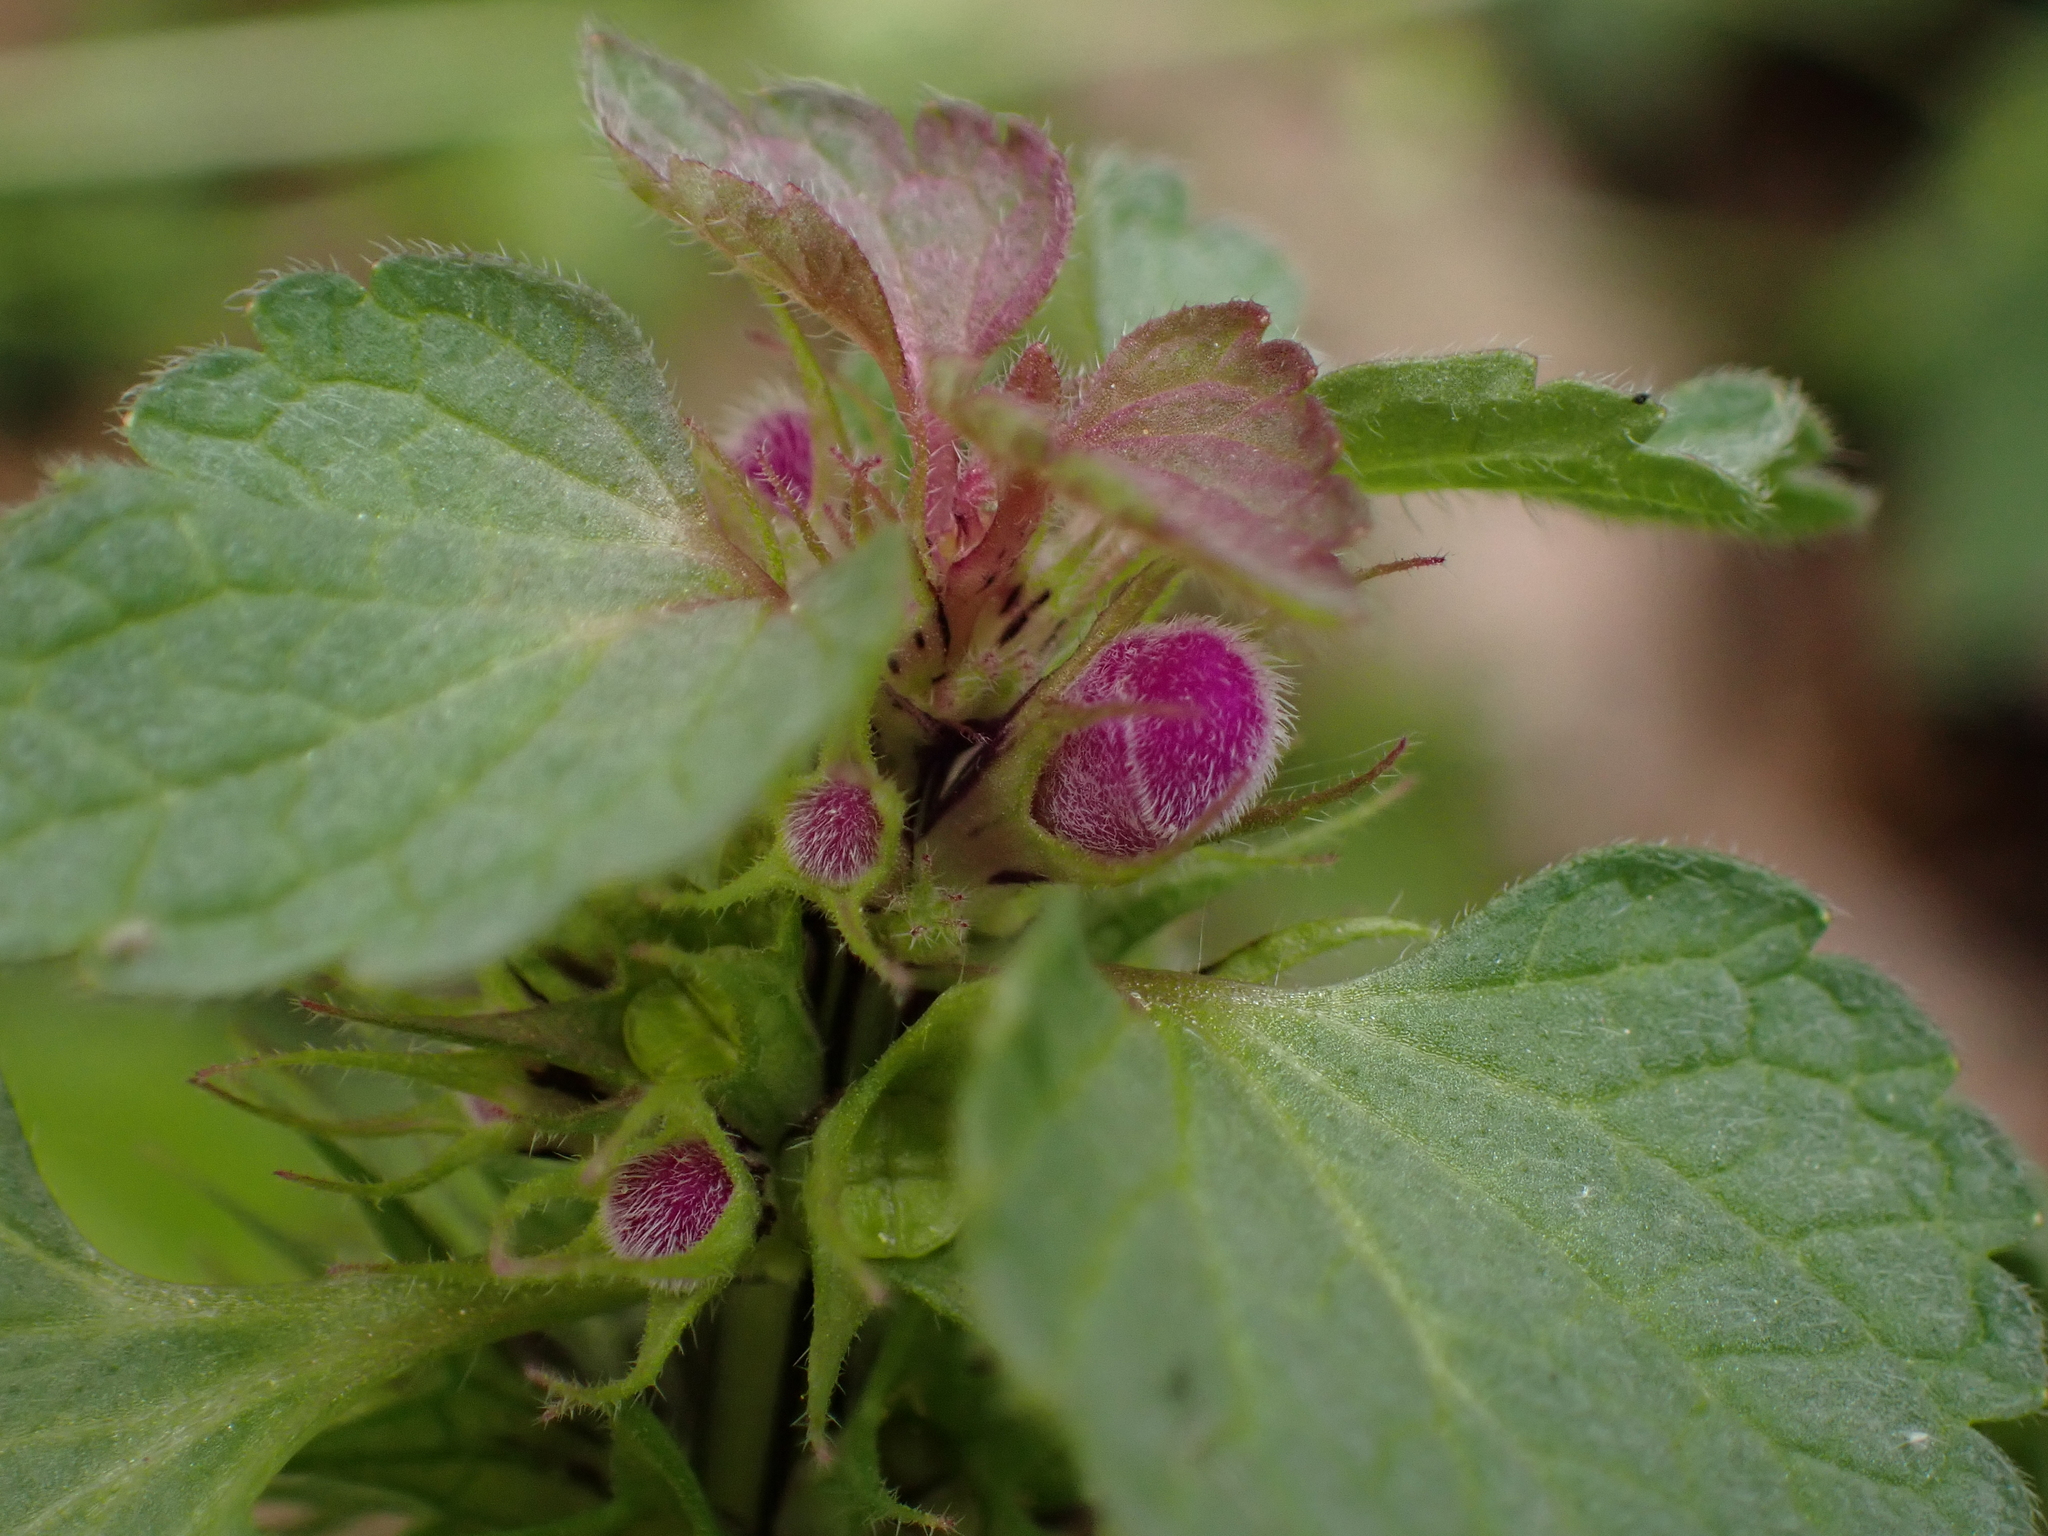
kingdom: Plantae
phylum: Tracheophyta
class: Magnoliopsida
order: Lamiales
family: Lamiaceae
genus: Lamium
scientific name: Lamium purpureum
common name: Red dead-nettle
